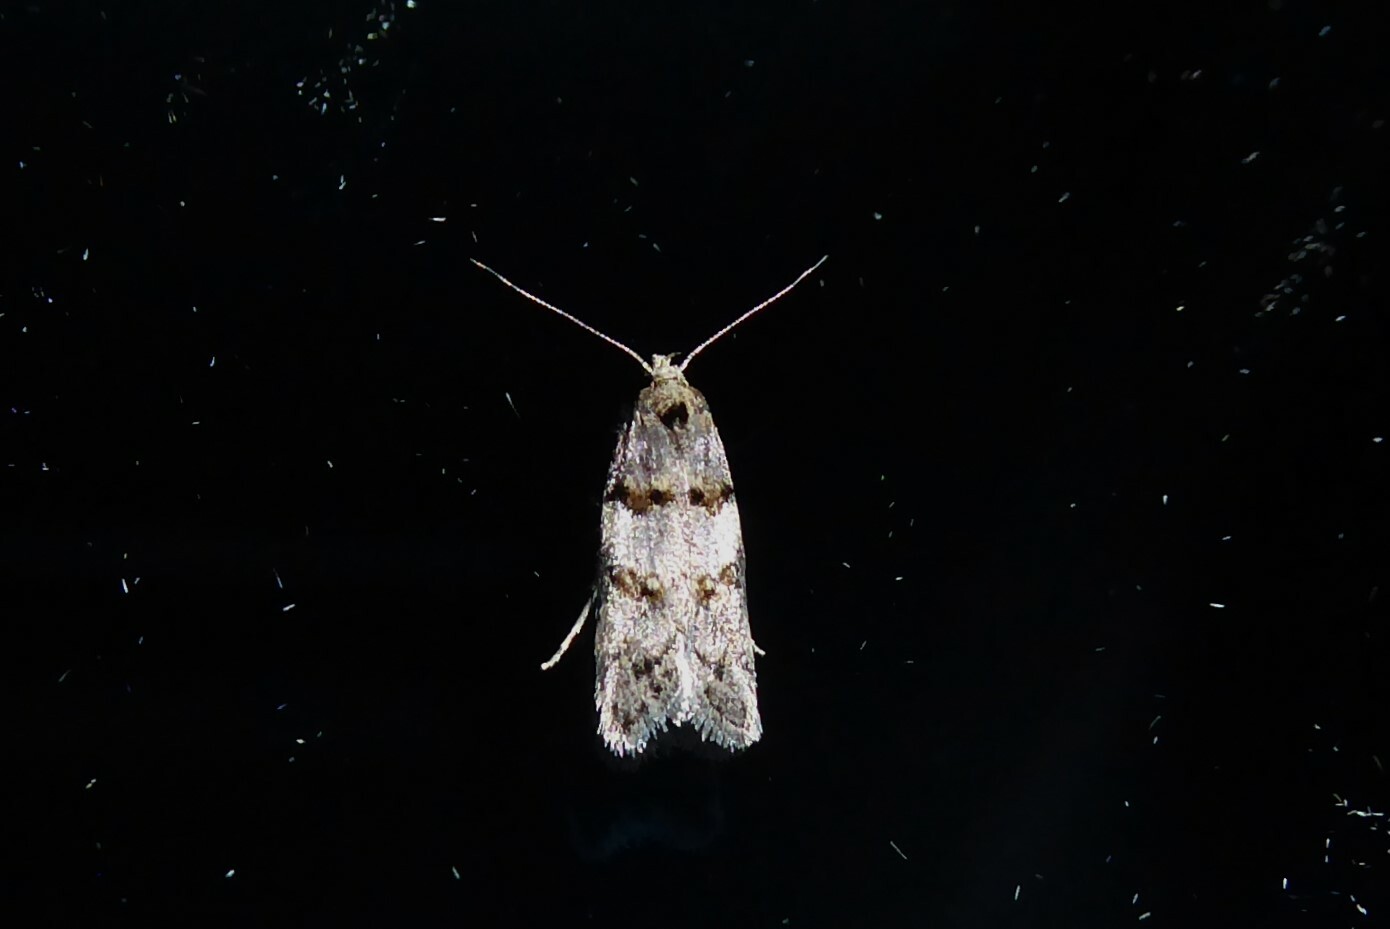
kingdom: Animalia
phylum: Arthropoda
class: Insecta
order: Lepidoptera
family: Oecophoridae
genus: Trachypepla
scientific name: Trachypepla contritella
